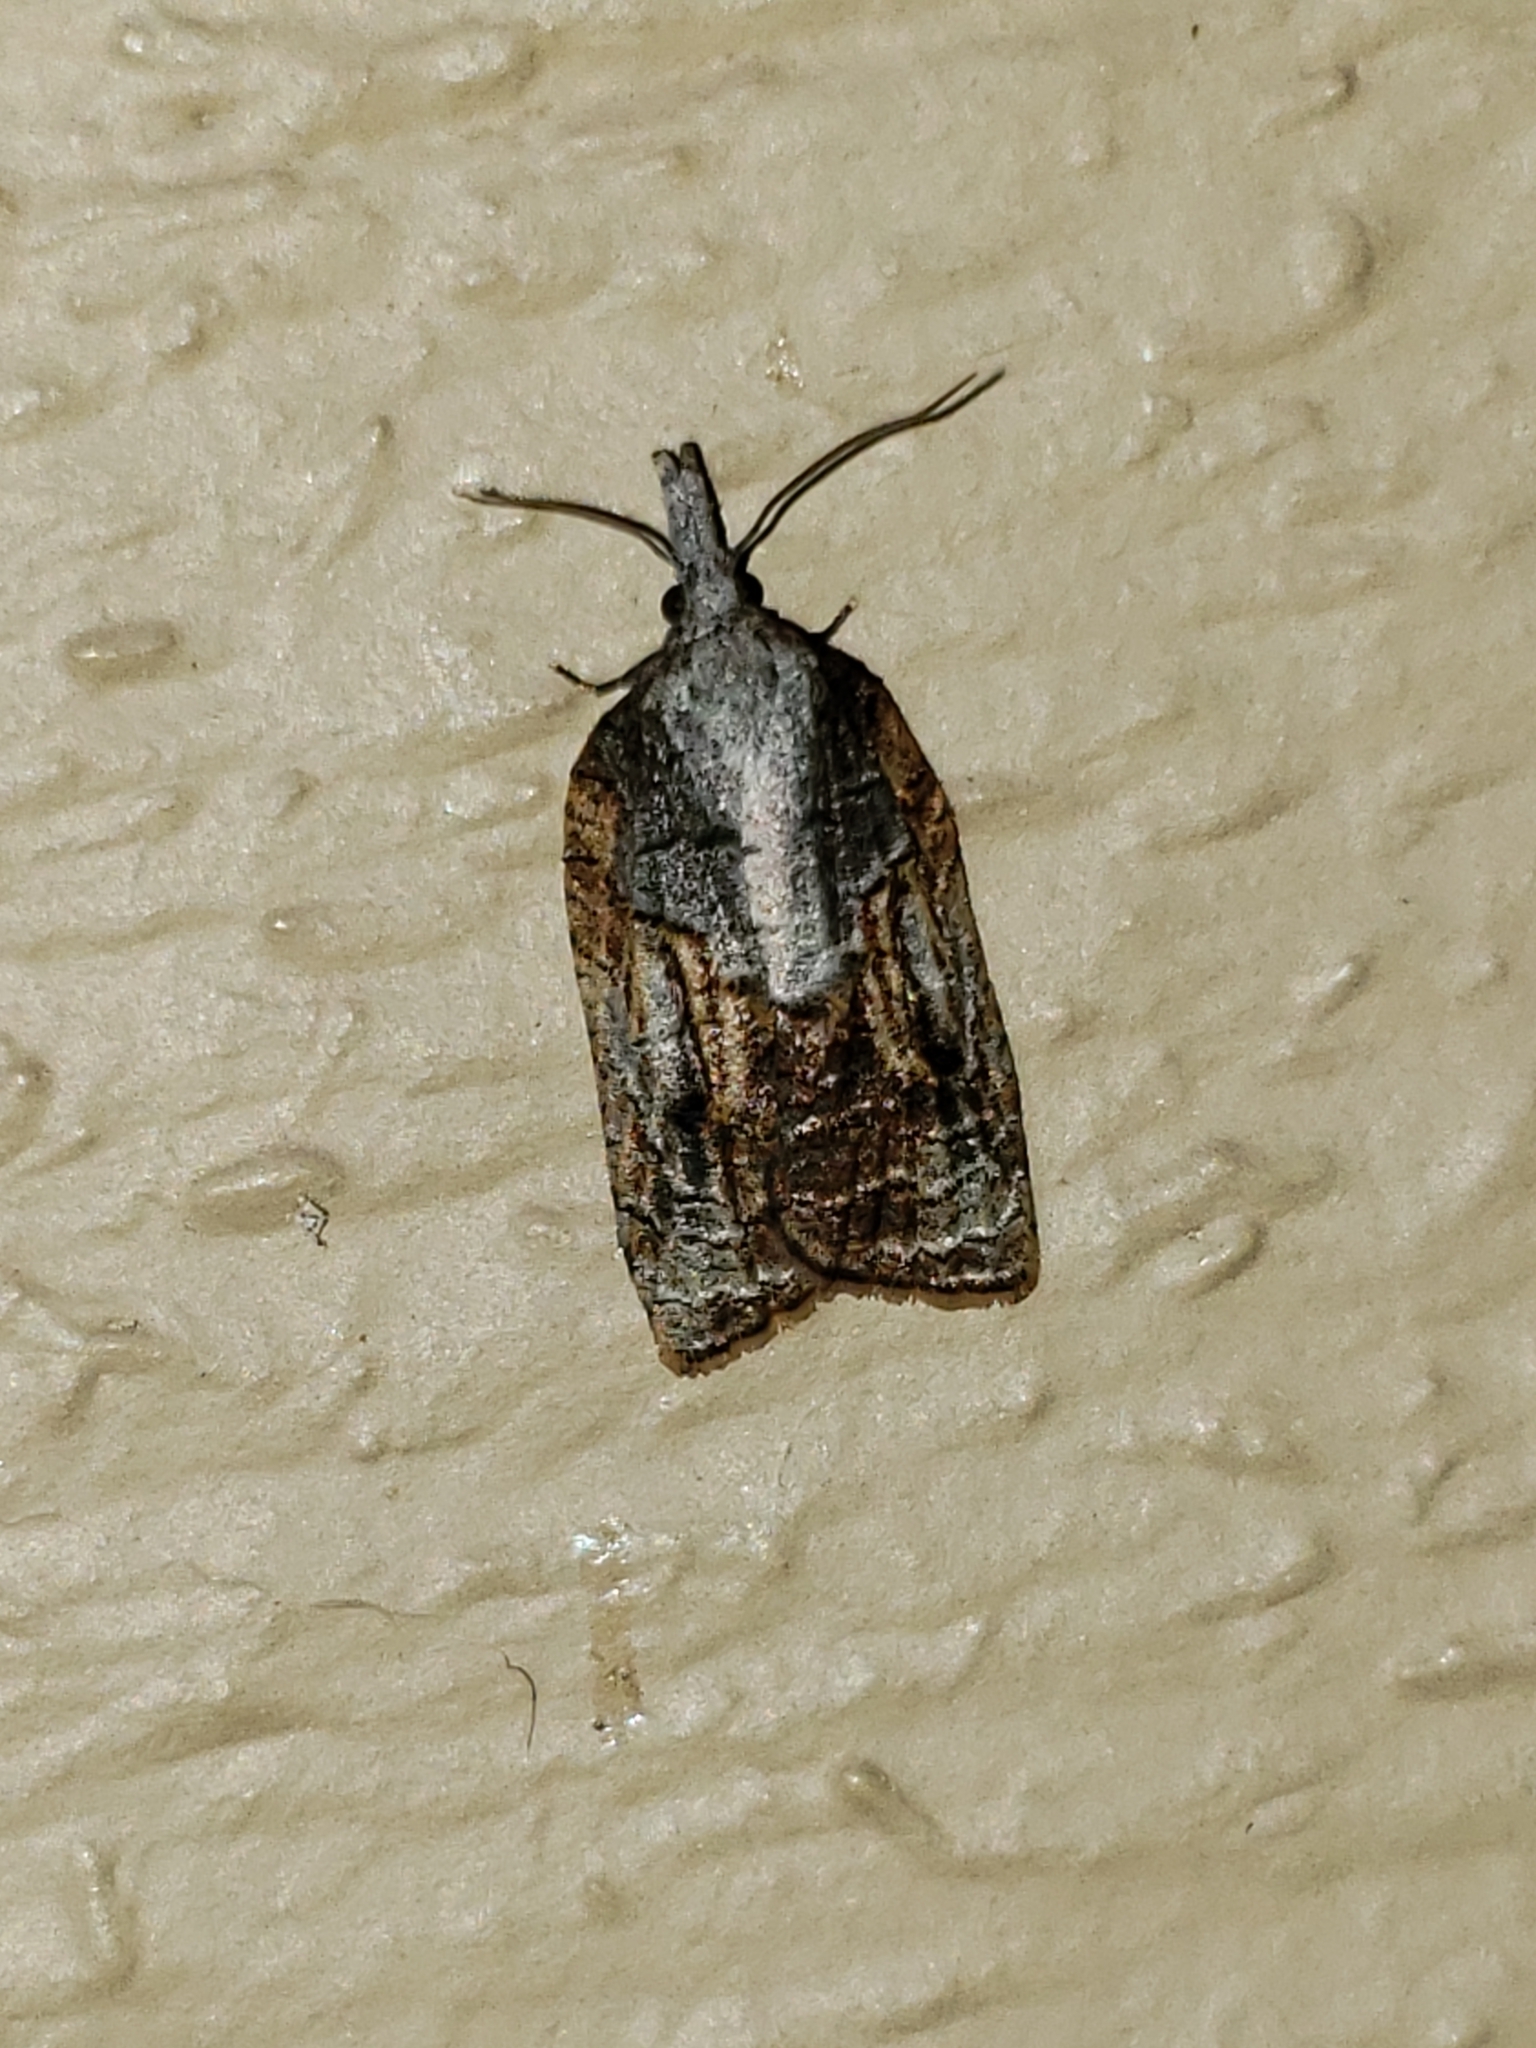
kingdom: Animalia
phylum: Arthropoda
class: Insecta
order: Lepidoptera
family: Tortricidae
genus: Platynota
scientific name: Platynota idaeusalis
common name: Tufted apple bud moth
